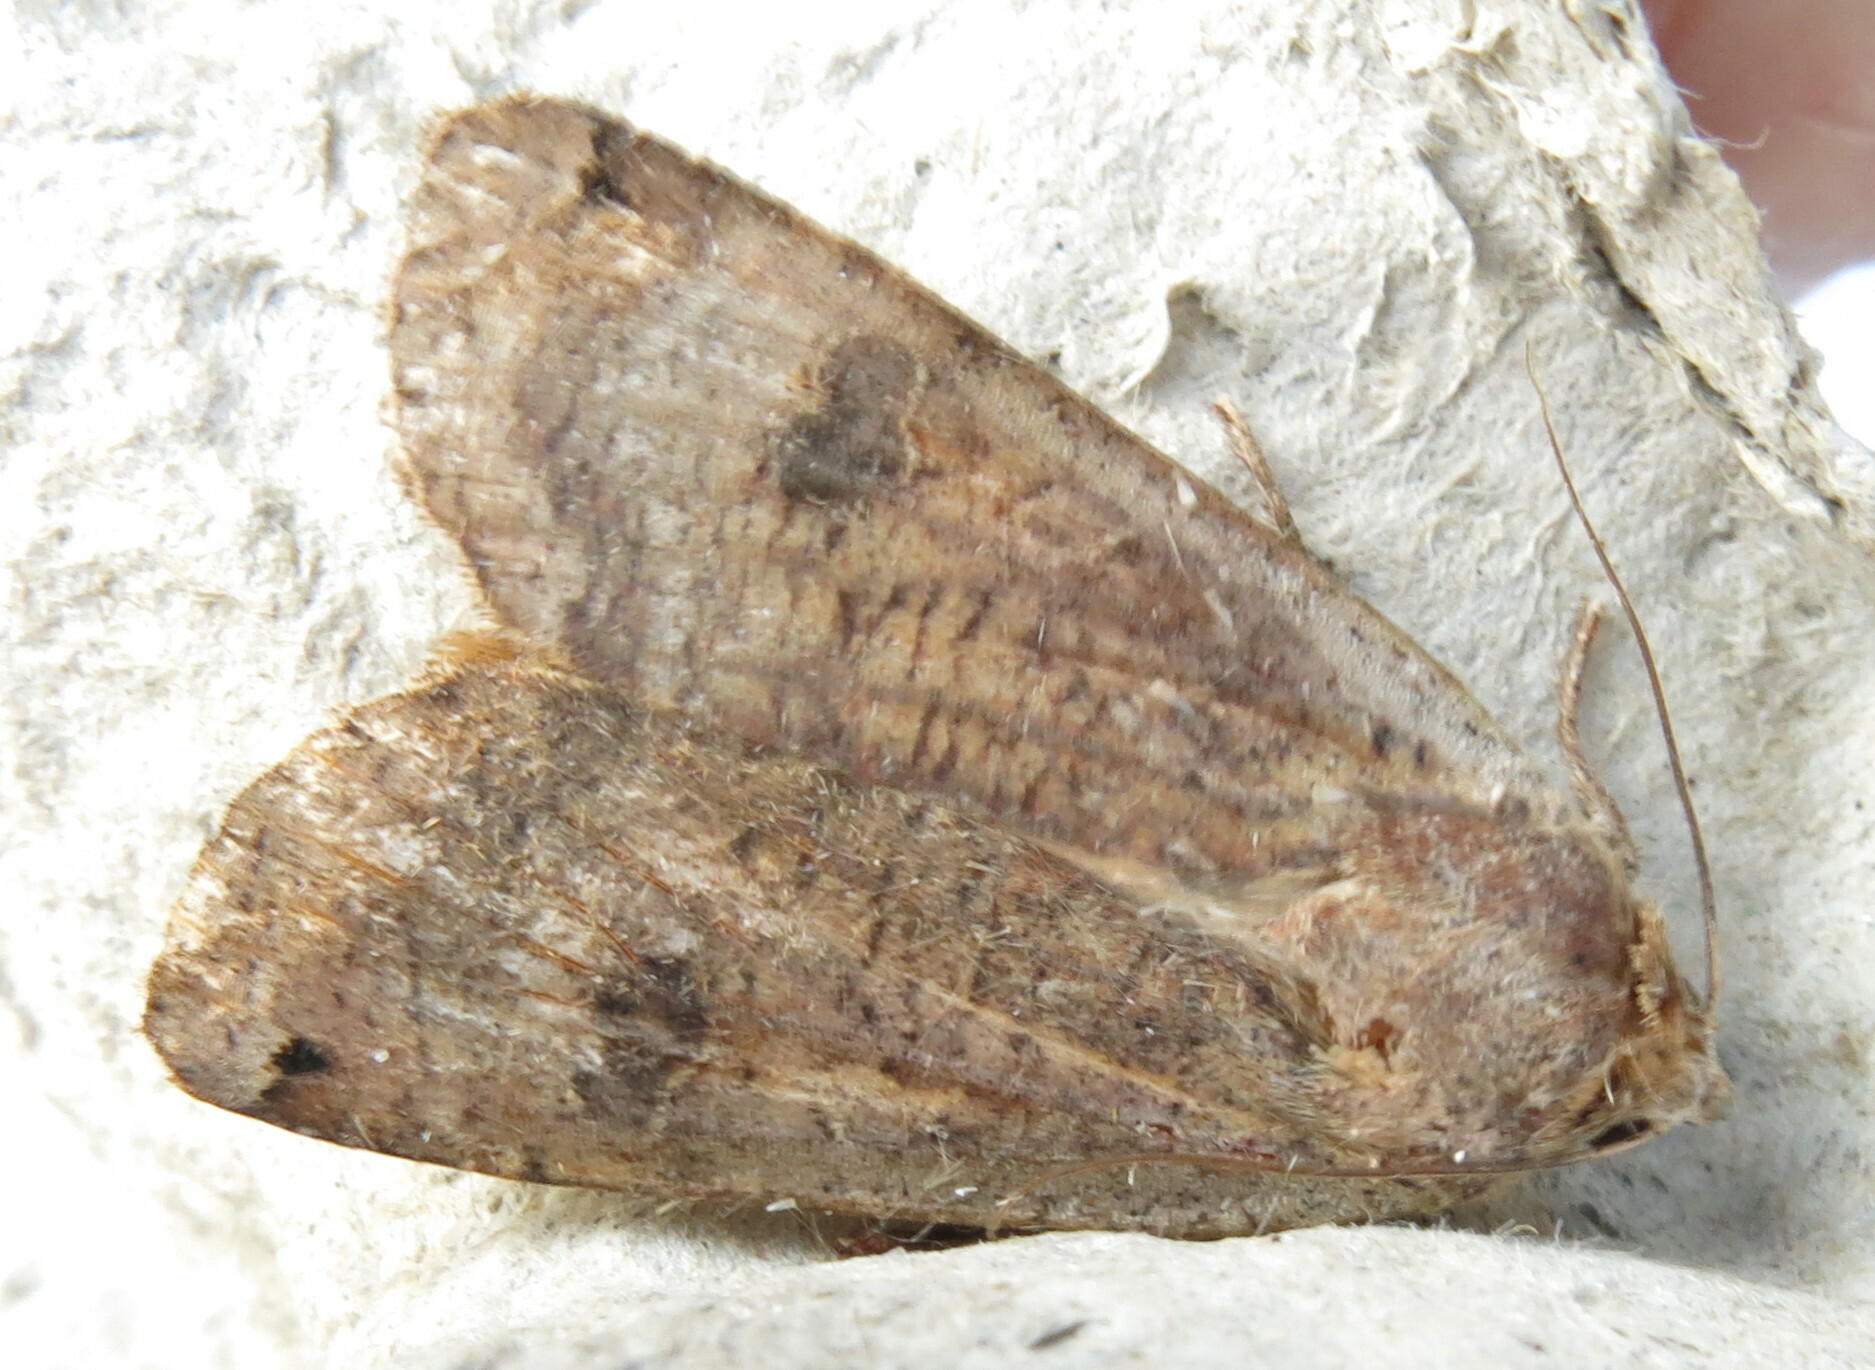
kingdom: Animalia
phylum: Arthropoda
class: Insecta
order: Lepidoptera
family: Noctuidae
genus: Noctua
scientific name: Noctua pronuba
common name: Large yellow underwing
